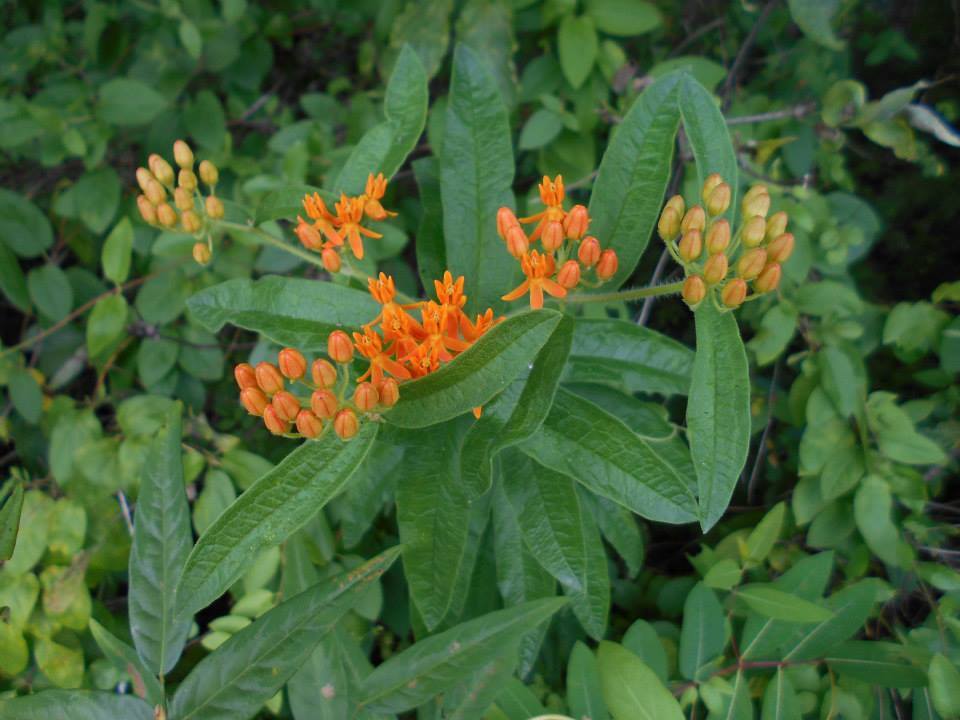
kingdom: Plantae
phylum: Tracheophyta
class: Magnoliopsida
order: Gentianales
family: Apocynaceae
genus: Asclepias
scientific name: Asclepias tuberosa
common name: Butterfly milkweed
